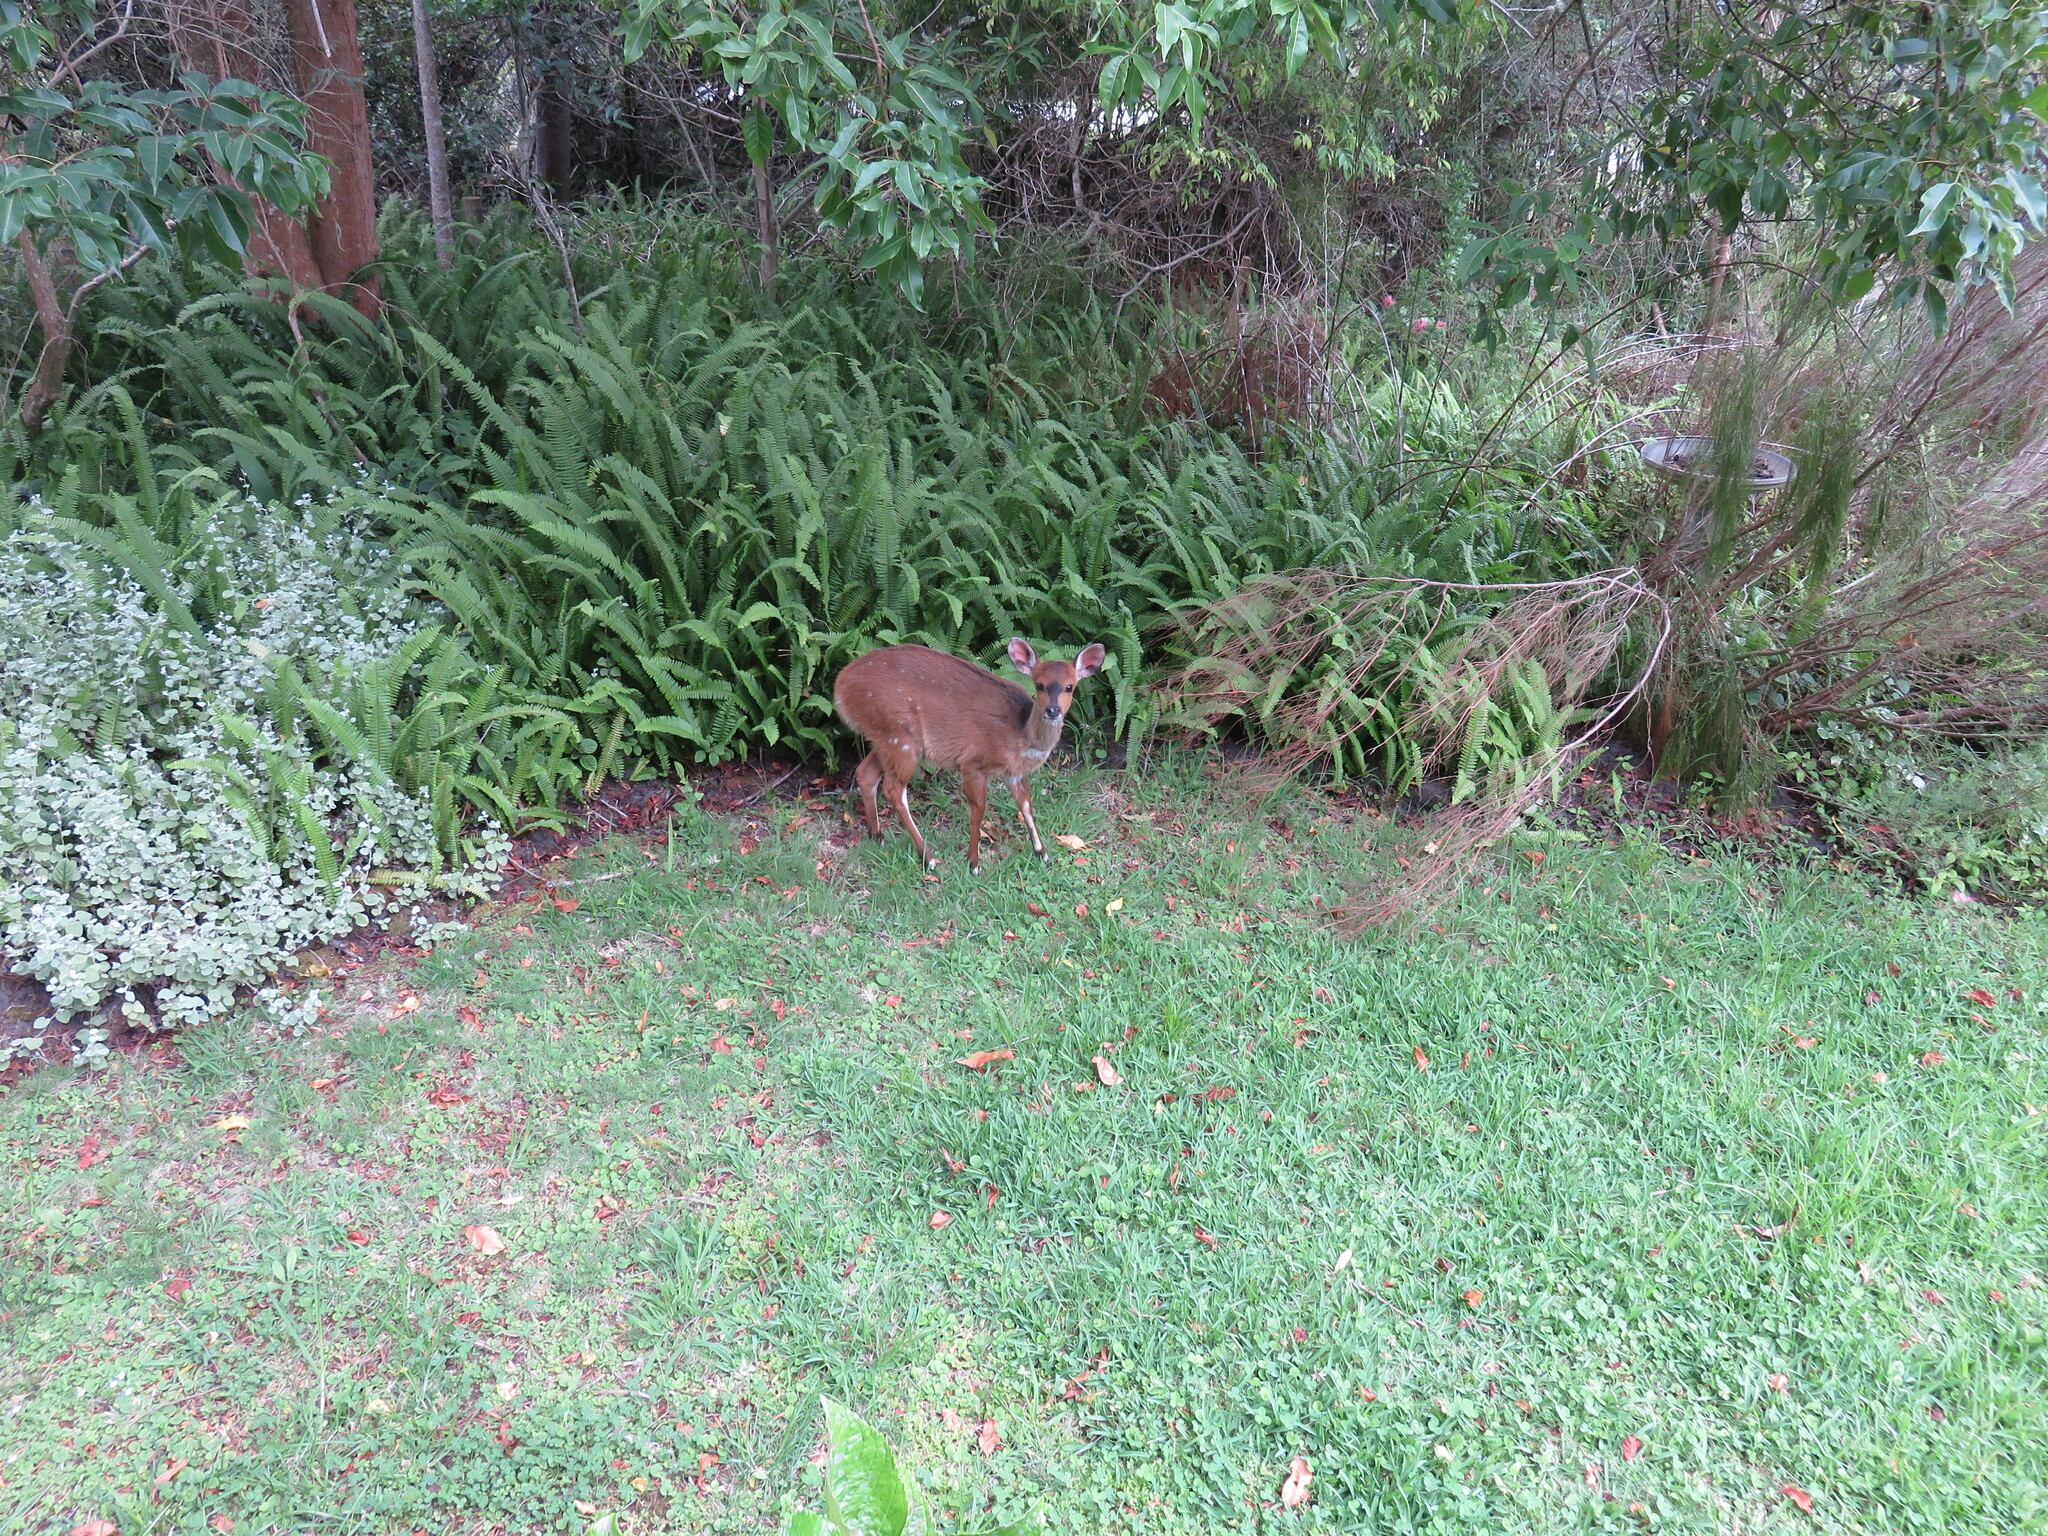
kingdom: Animalia
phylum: Chordata
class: Mammalia
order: Artiodactyla
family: Bovidae
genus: Tragelaphus
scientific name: Tragelaphus scriptus
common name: Bushbuck
